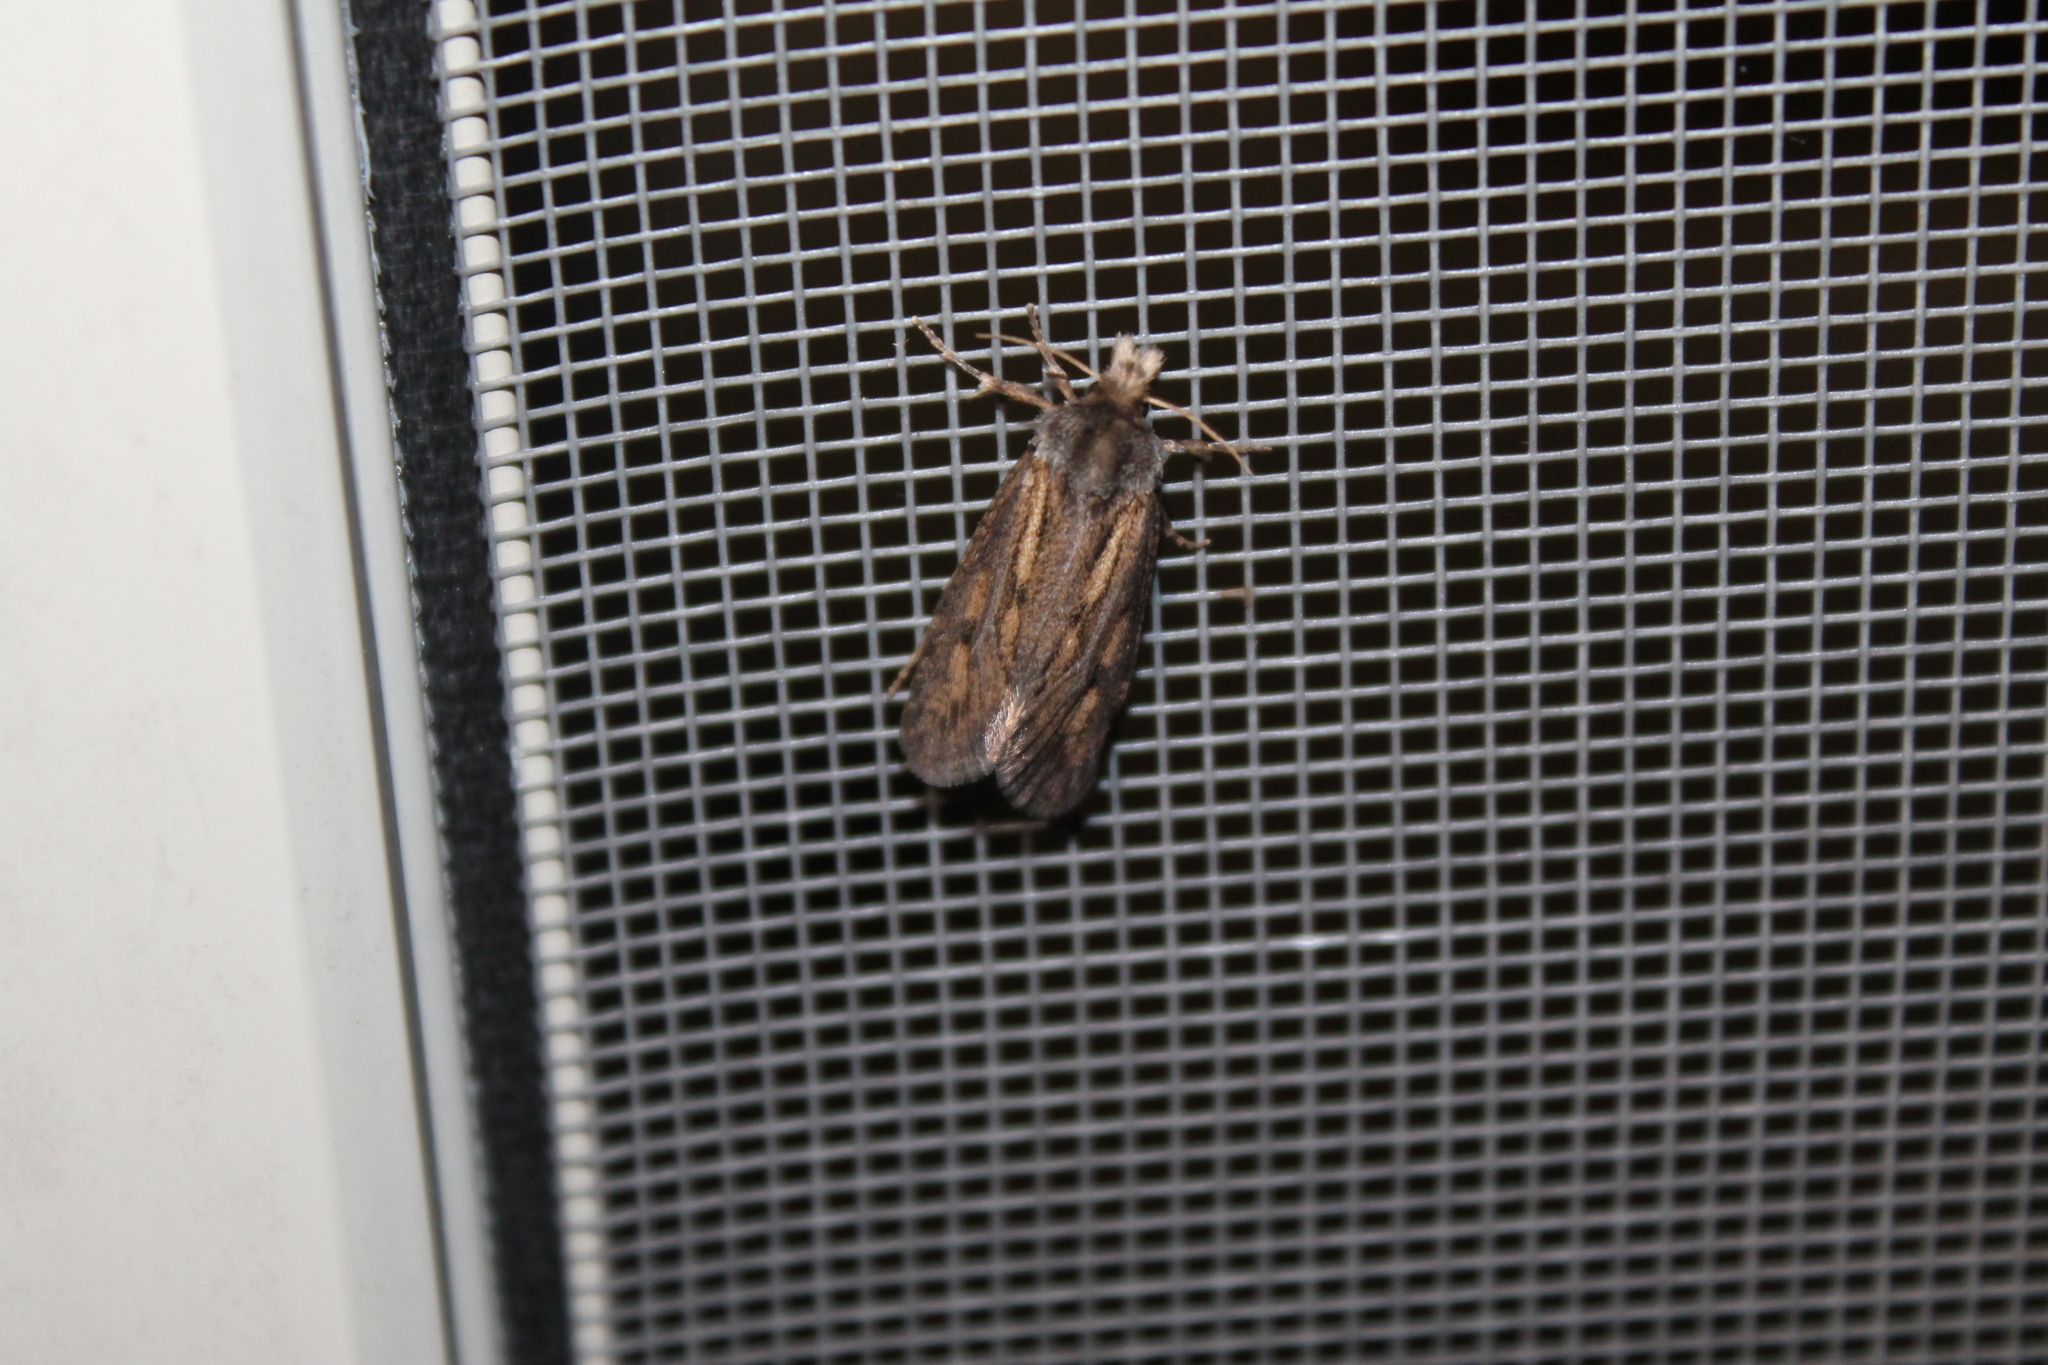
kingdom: Animalia
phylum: Arthropoda
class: Insecta
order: Lepidoptera
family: Tineidae
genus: Acrolophus
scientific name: Acrolophus popeanella
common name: Clemens' grass tubeworm moth
